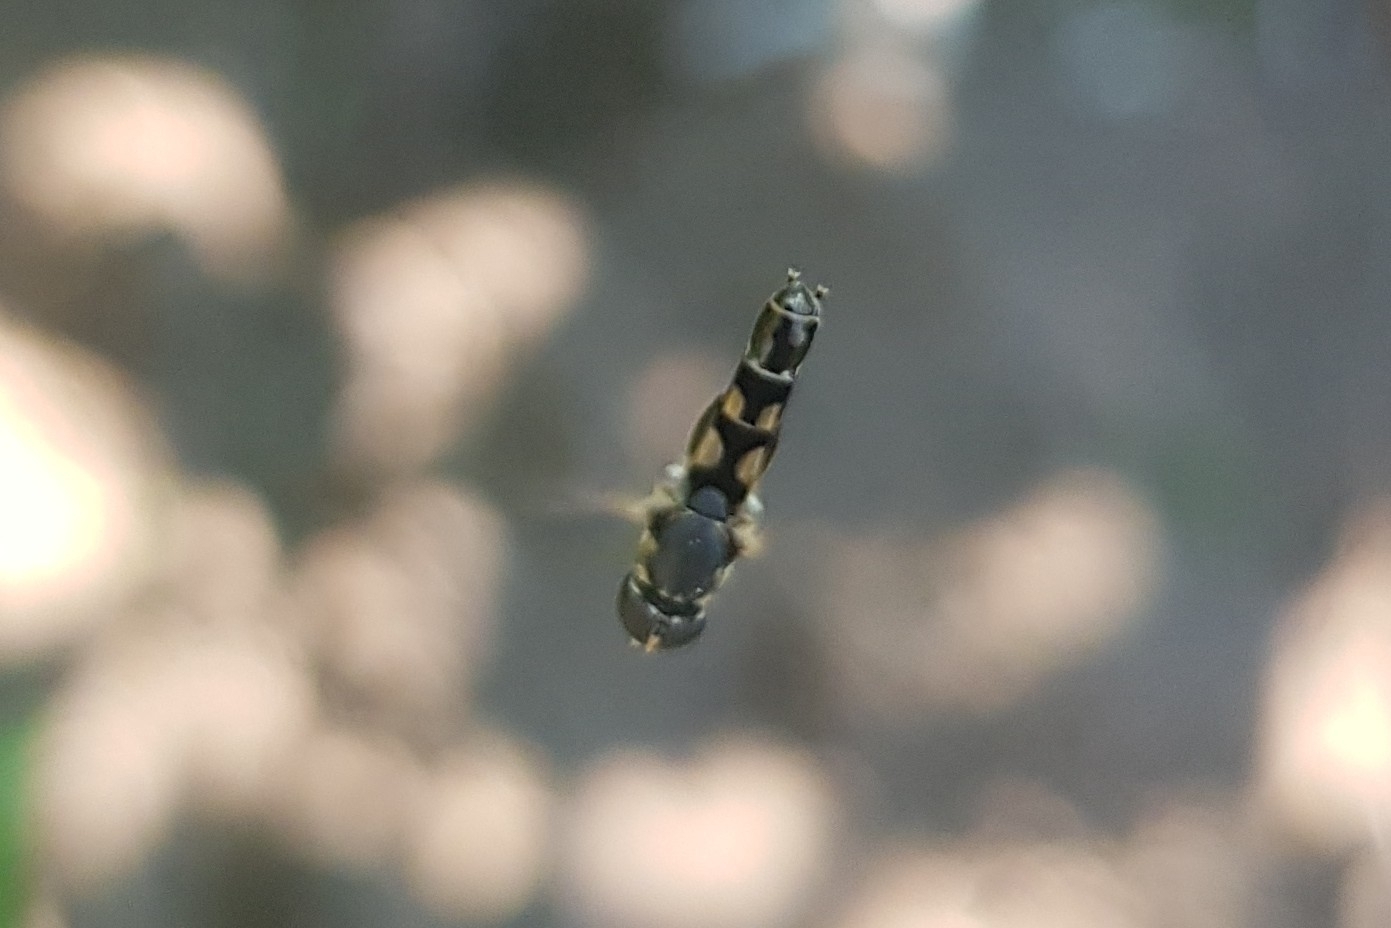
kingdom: Animalia
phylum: Arthropoda
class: Insecta
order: Diptera
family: Syrphidae
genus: Syritta
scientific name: Syritta pipiens
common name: Hover fly
